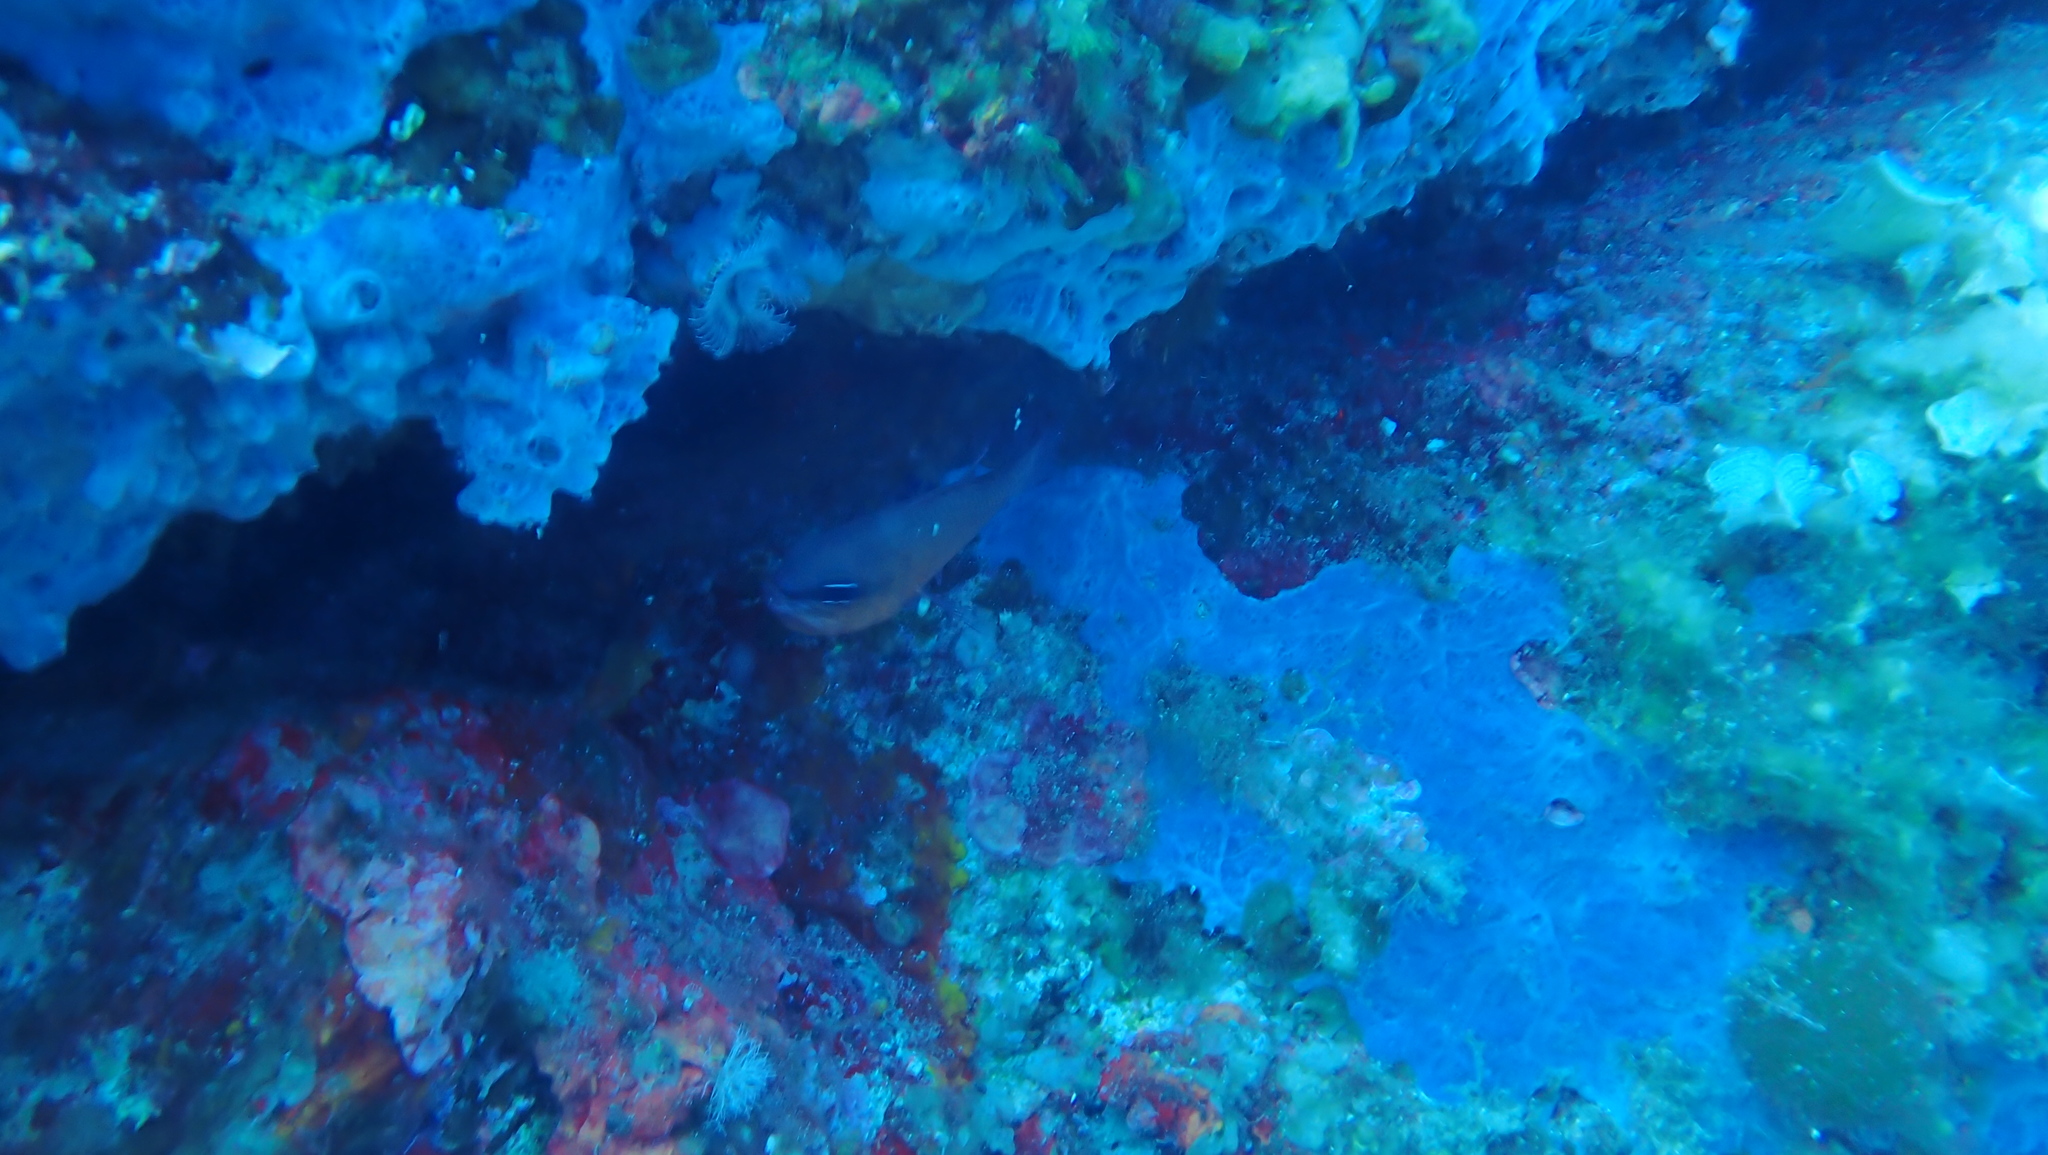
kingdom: Animalia
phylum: Porifera
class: Demospongiae
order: Poecilosclerida
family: Hymedesmiidae
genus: Phorbas
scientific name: Phorbas tenacior
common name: Bluish encrusting sponge
